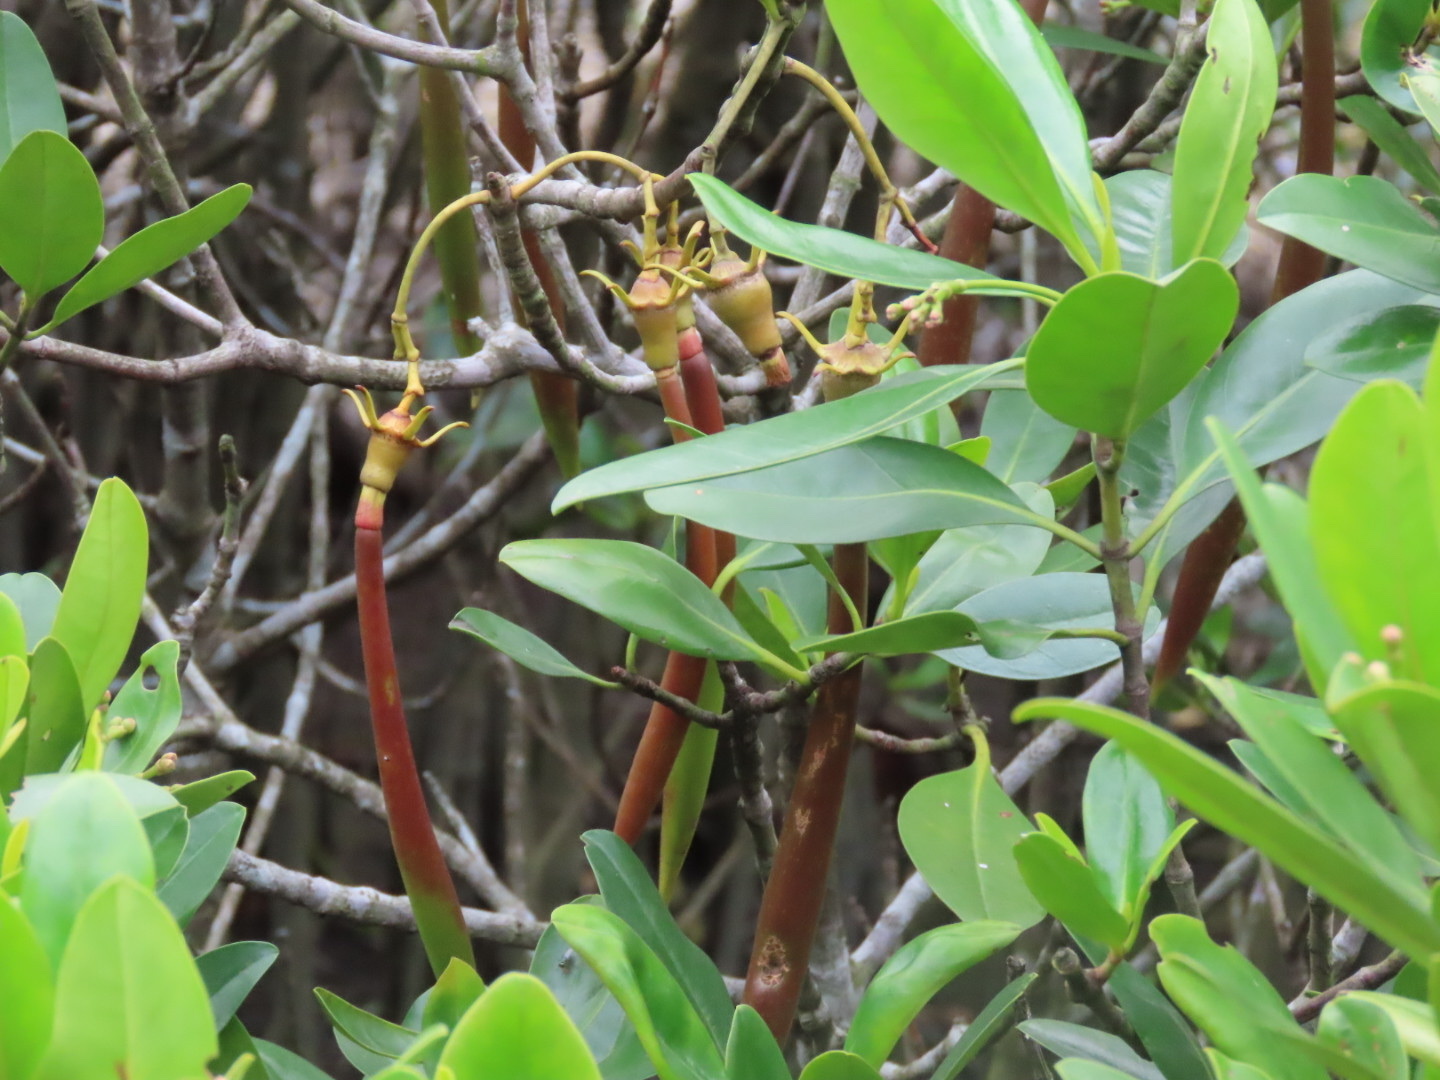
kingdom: Plantae
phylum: Tracheophyta
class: Magnoliopsida
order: Malpighiales
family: Rhizophoraceae
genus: Kandelia
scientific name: Kandelia obovata
